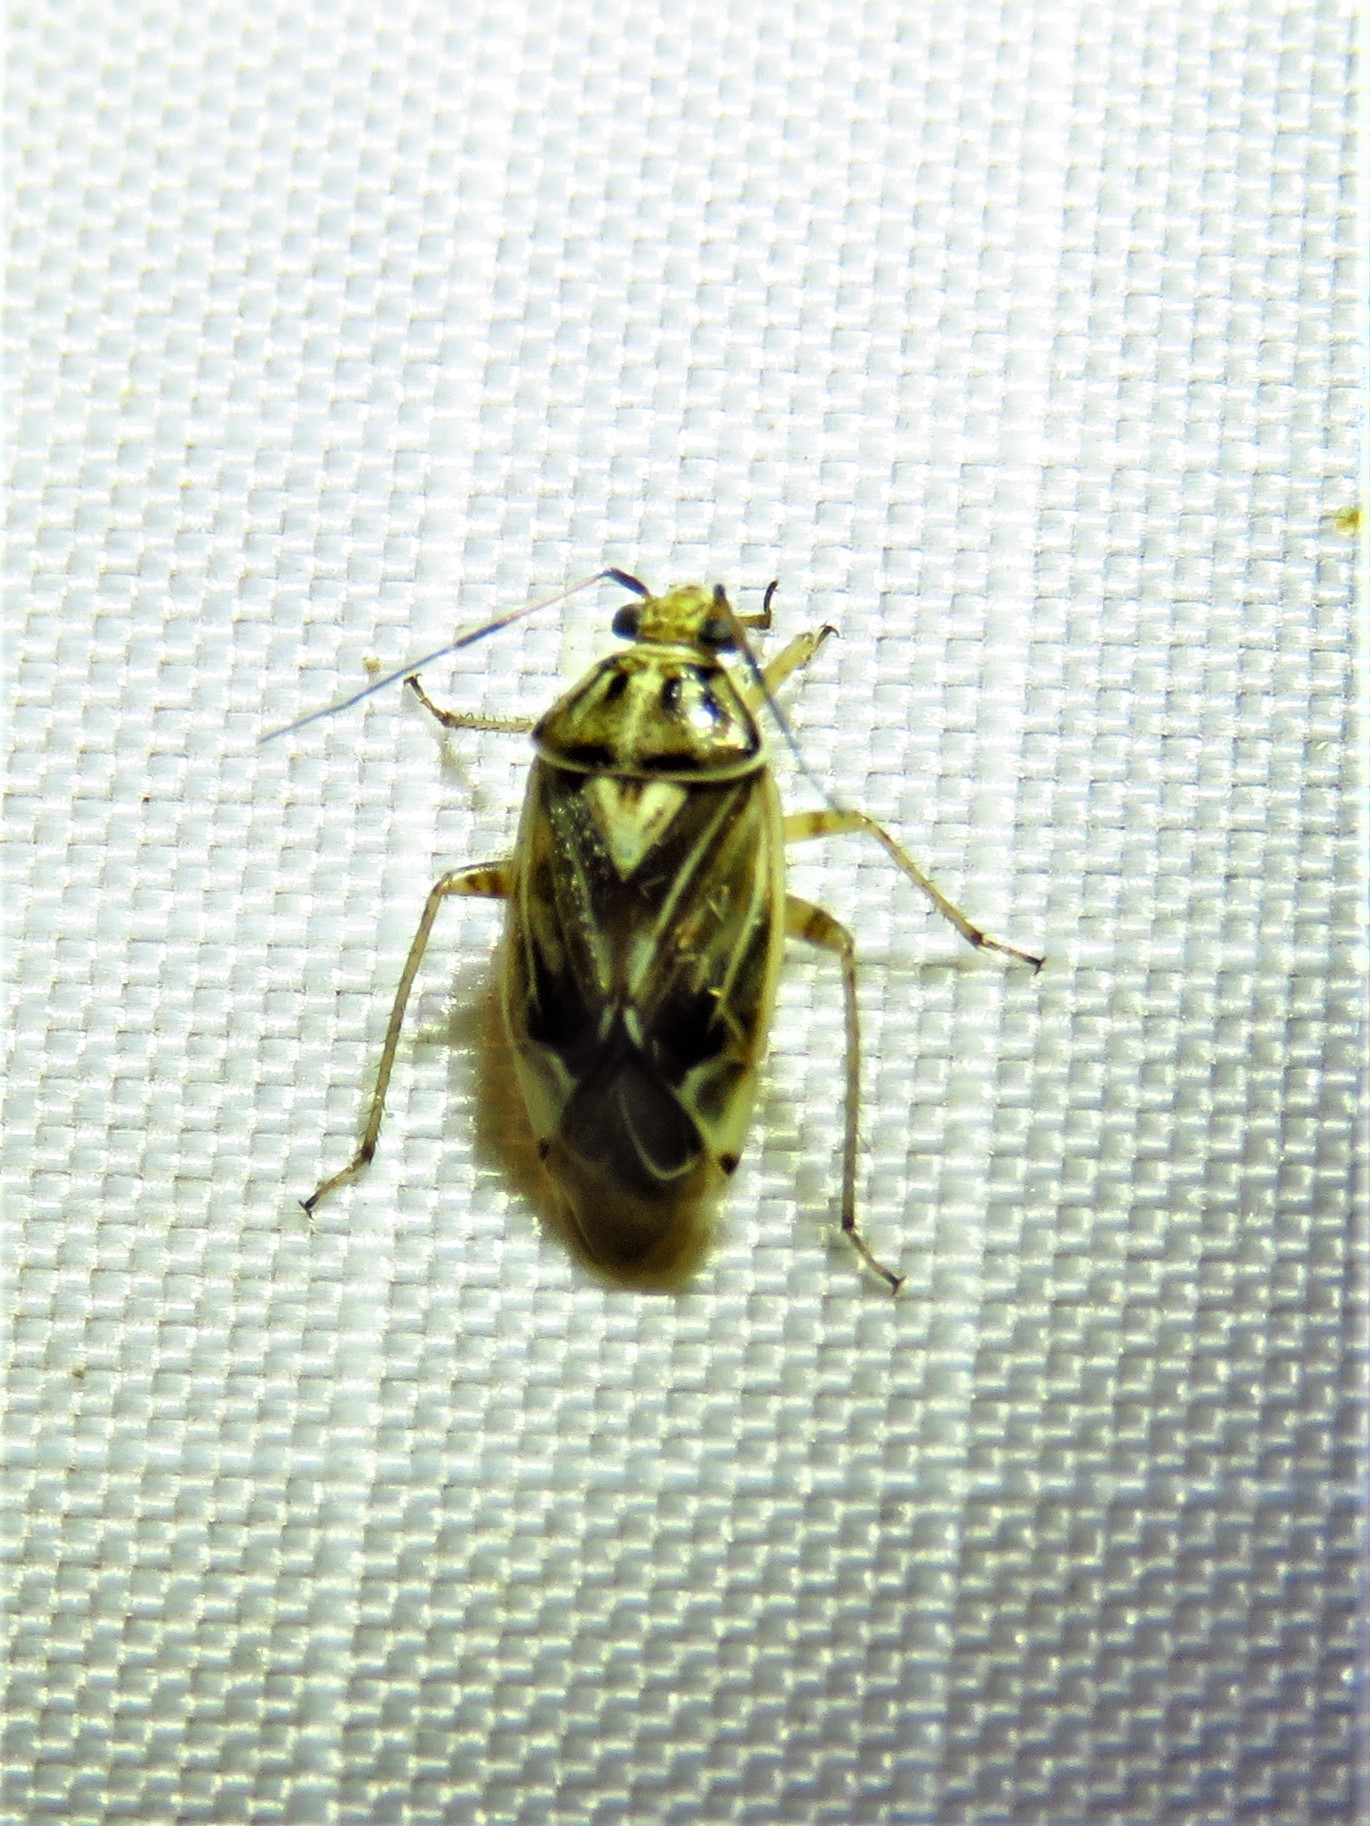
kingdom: Animalia
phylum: Arthropoda
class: Insecta
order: Hemiptera
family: Miridae
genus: Lygus
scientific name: Lygus lineolaris
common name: North american tarnished plant bug
